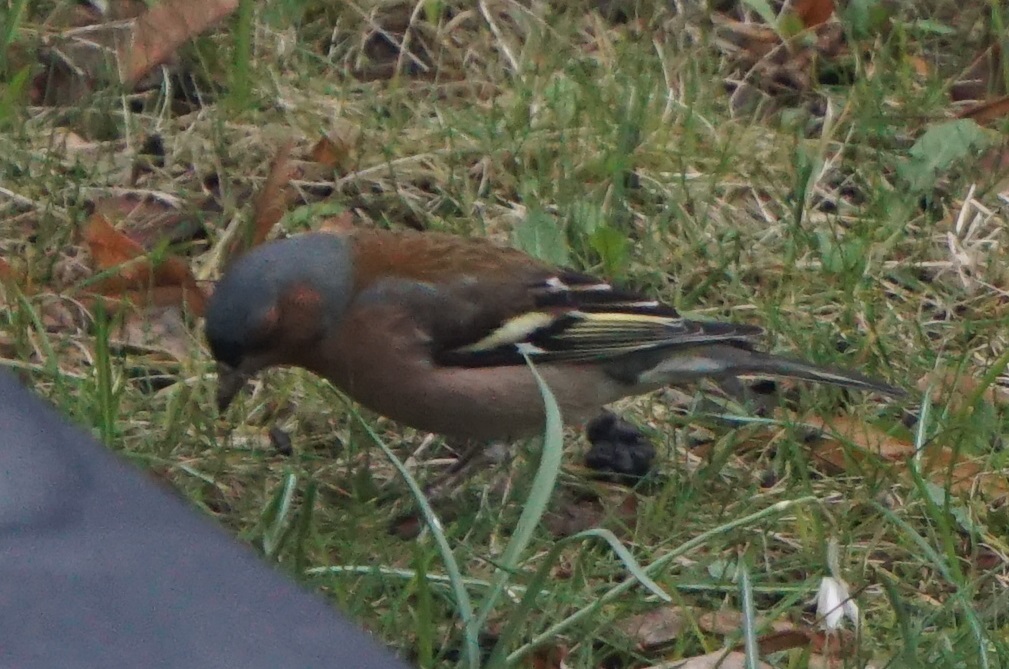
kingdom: Animalia
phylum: Chordata
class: Aves
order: Passeriformes
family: Fringillidae
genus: Fringilla
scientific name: Fringilla coelebs
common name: Common chaffinch
